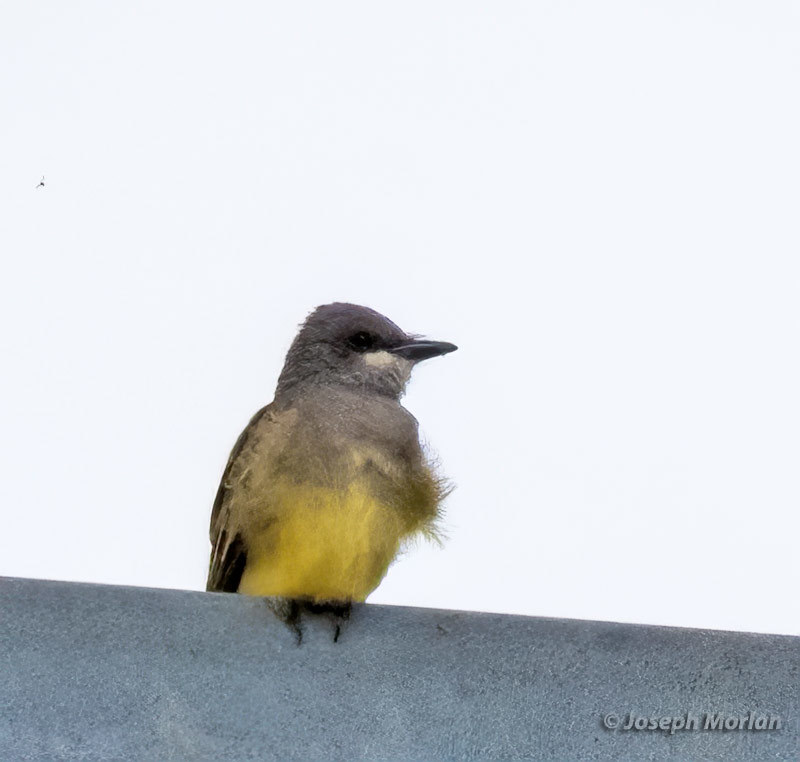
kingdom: Animalia
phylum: Chordata
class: Aves
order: Passeriformes
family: Tyrannidae
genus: Tyrannus
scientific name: Tyrannus vociferans
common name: Cassin's kingbird
